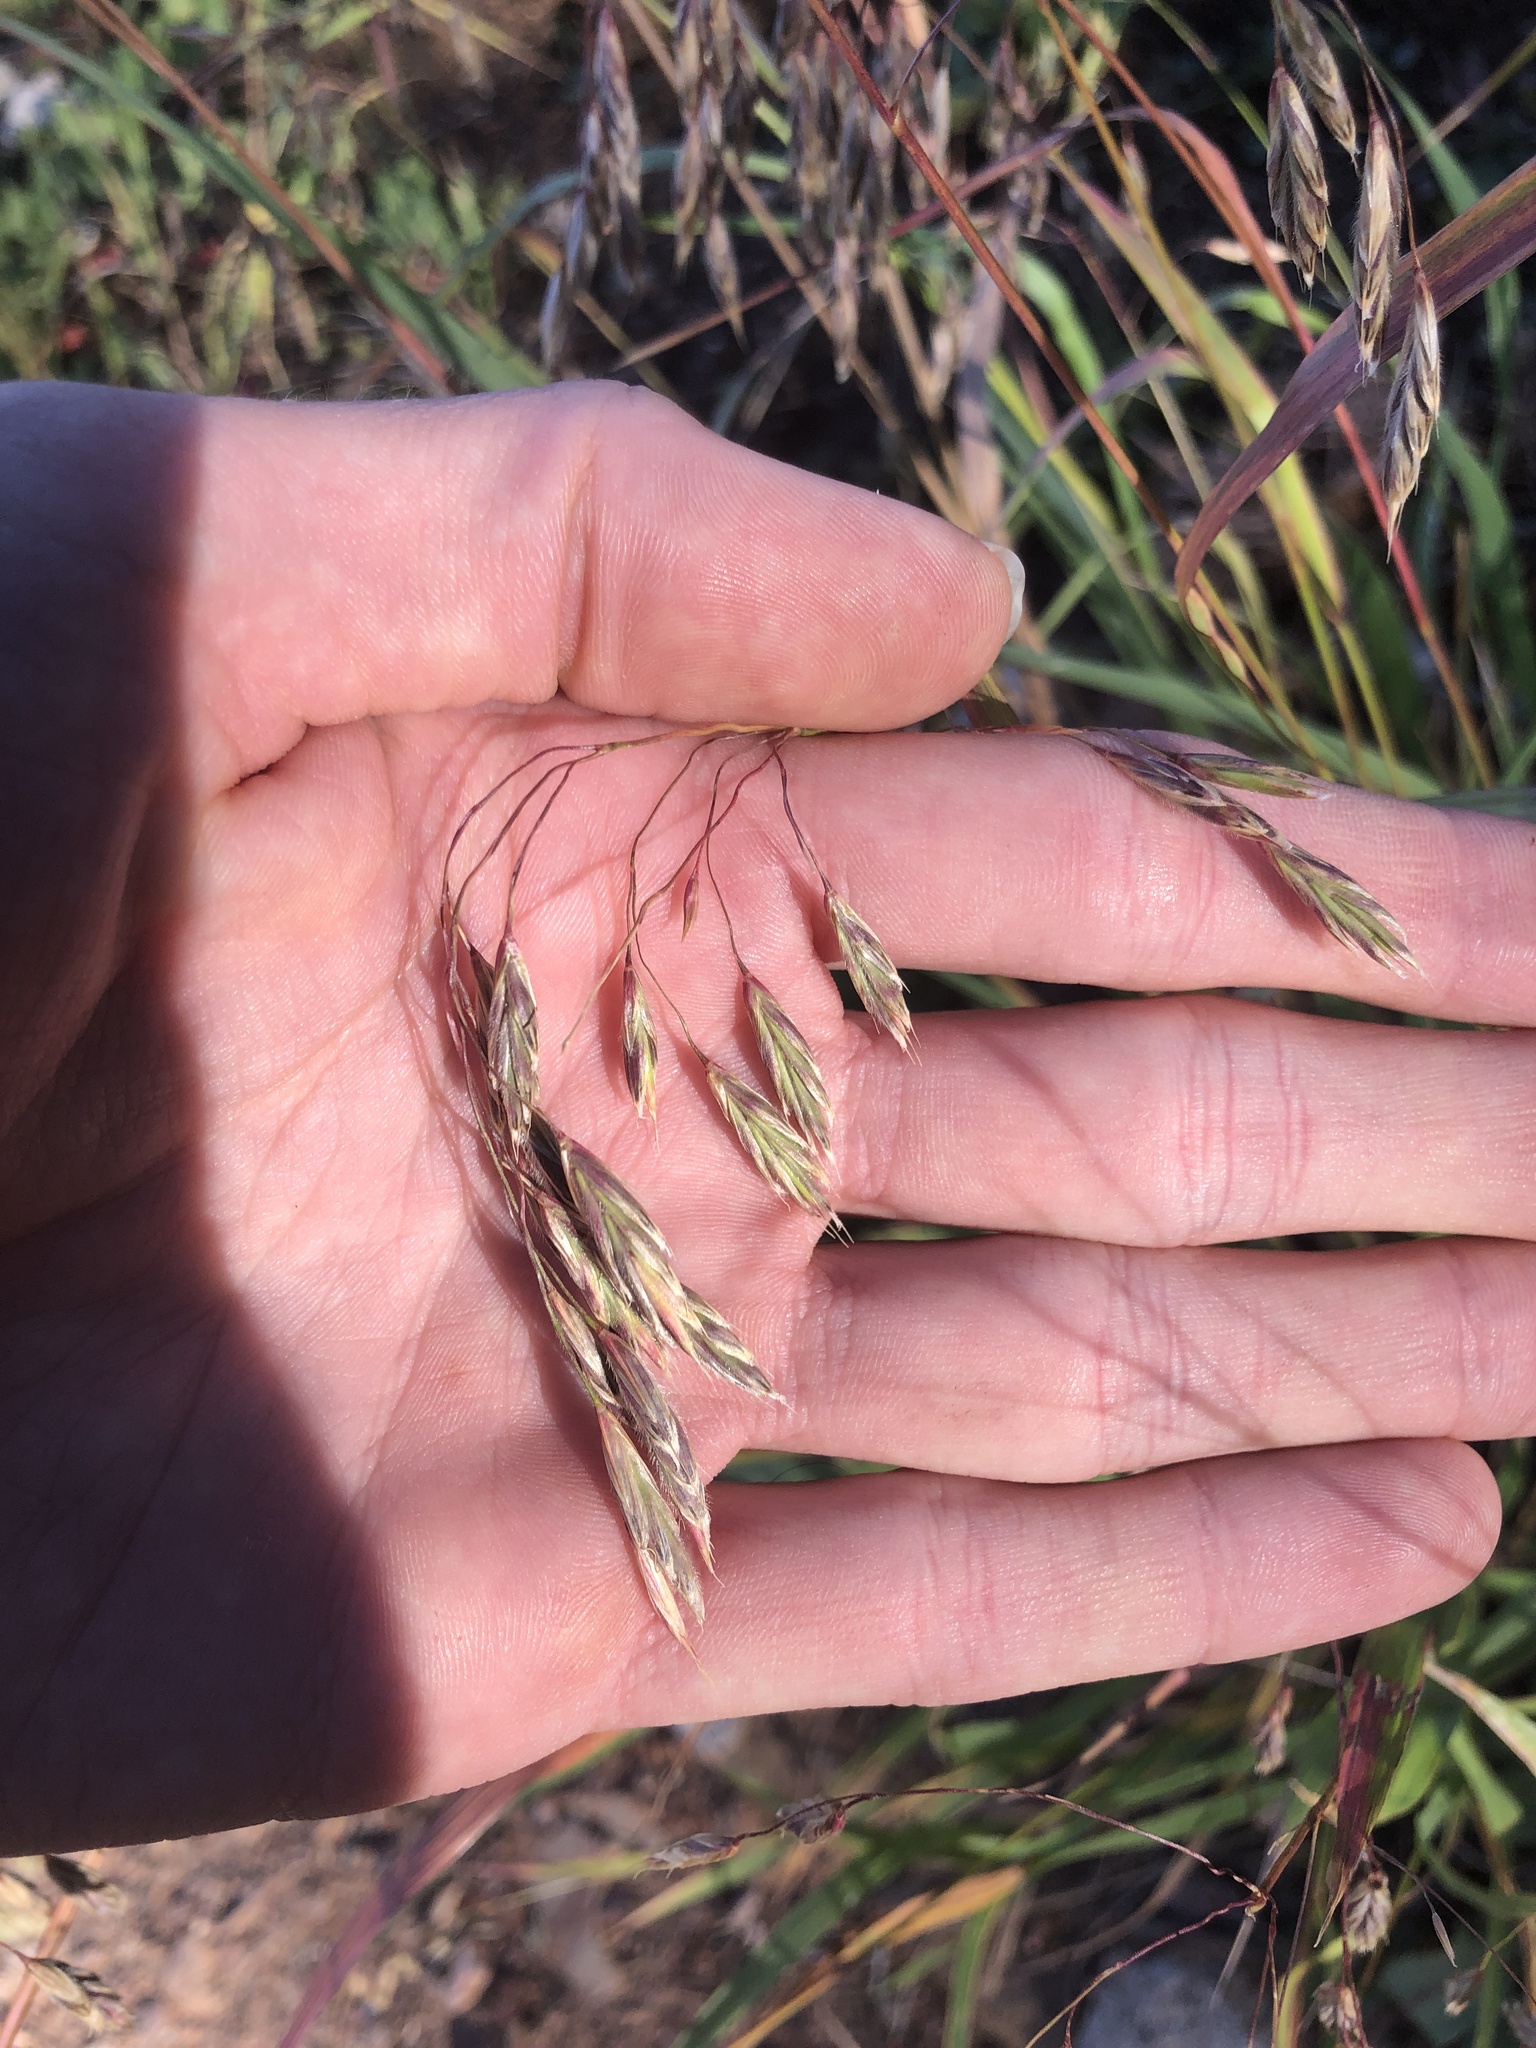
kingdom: Plantae
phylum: Tracheophyta
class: Liliopsida
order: Poales
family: Poaceae
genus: Bromus
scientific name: Bromus tectorum
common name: Cheatgrass
